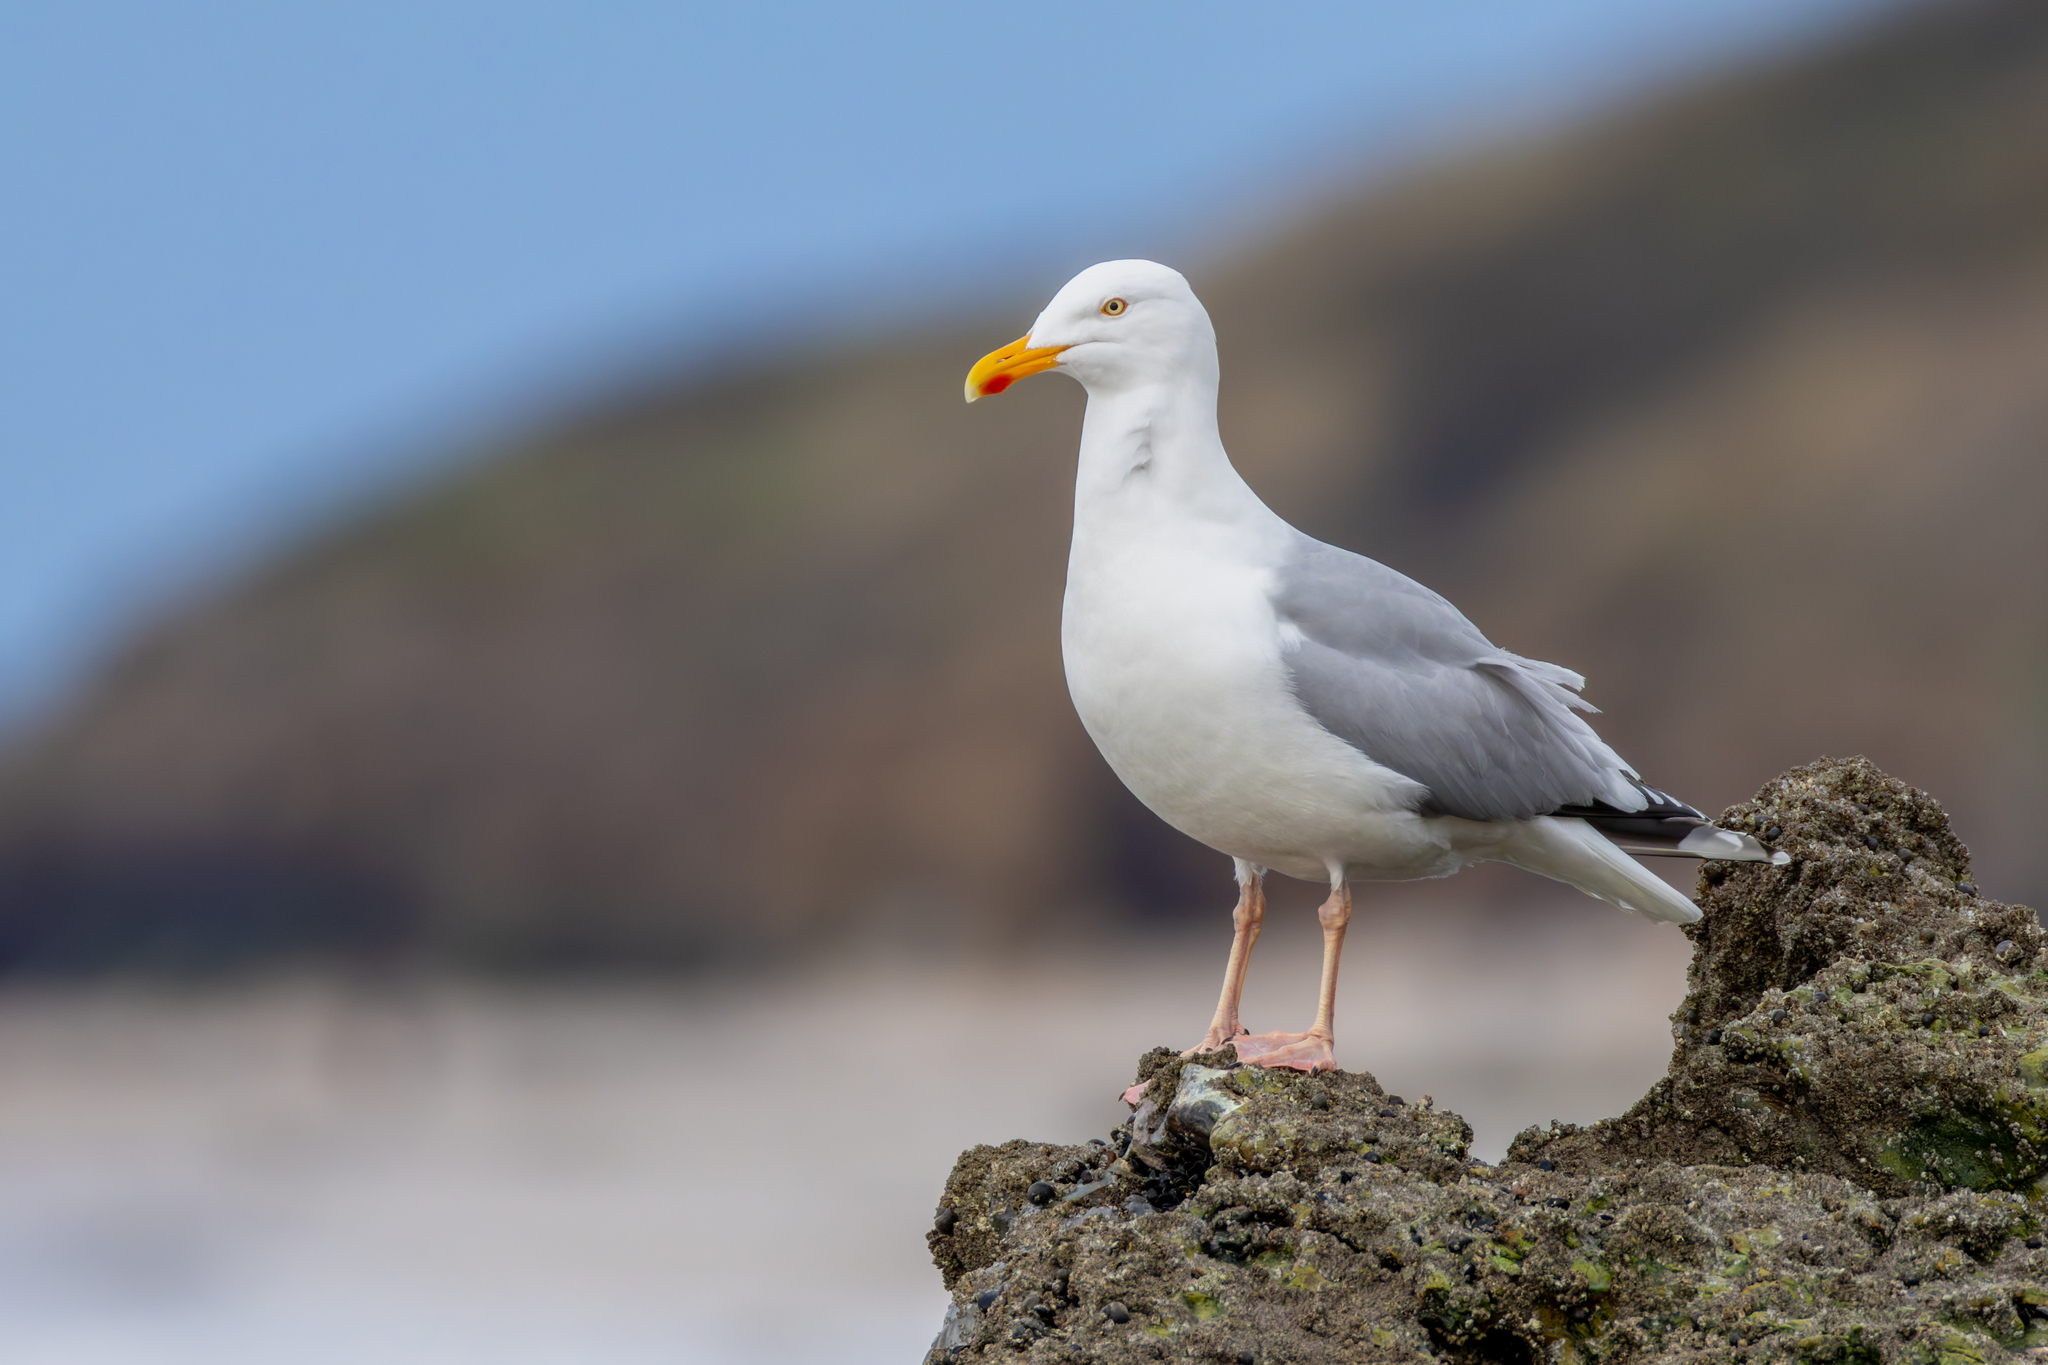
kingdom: Animalia
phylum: Chordata
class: Aves
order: Charadriiformes
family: Laridae
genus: Larus
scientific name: Larus argentatus
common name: Herring gull
